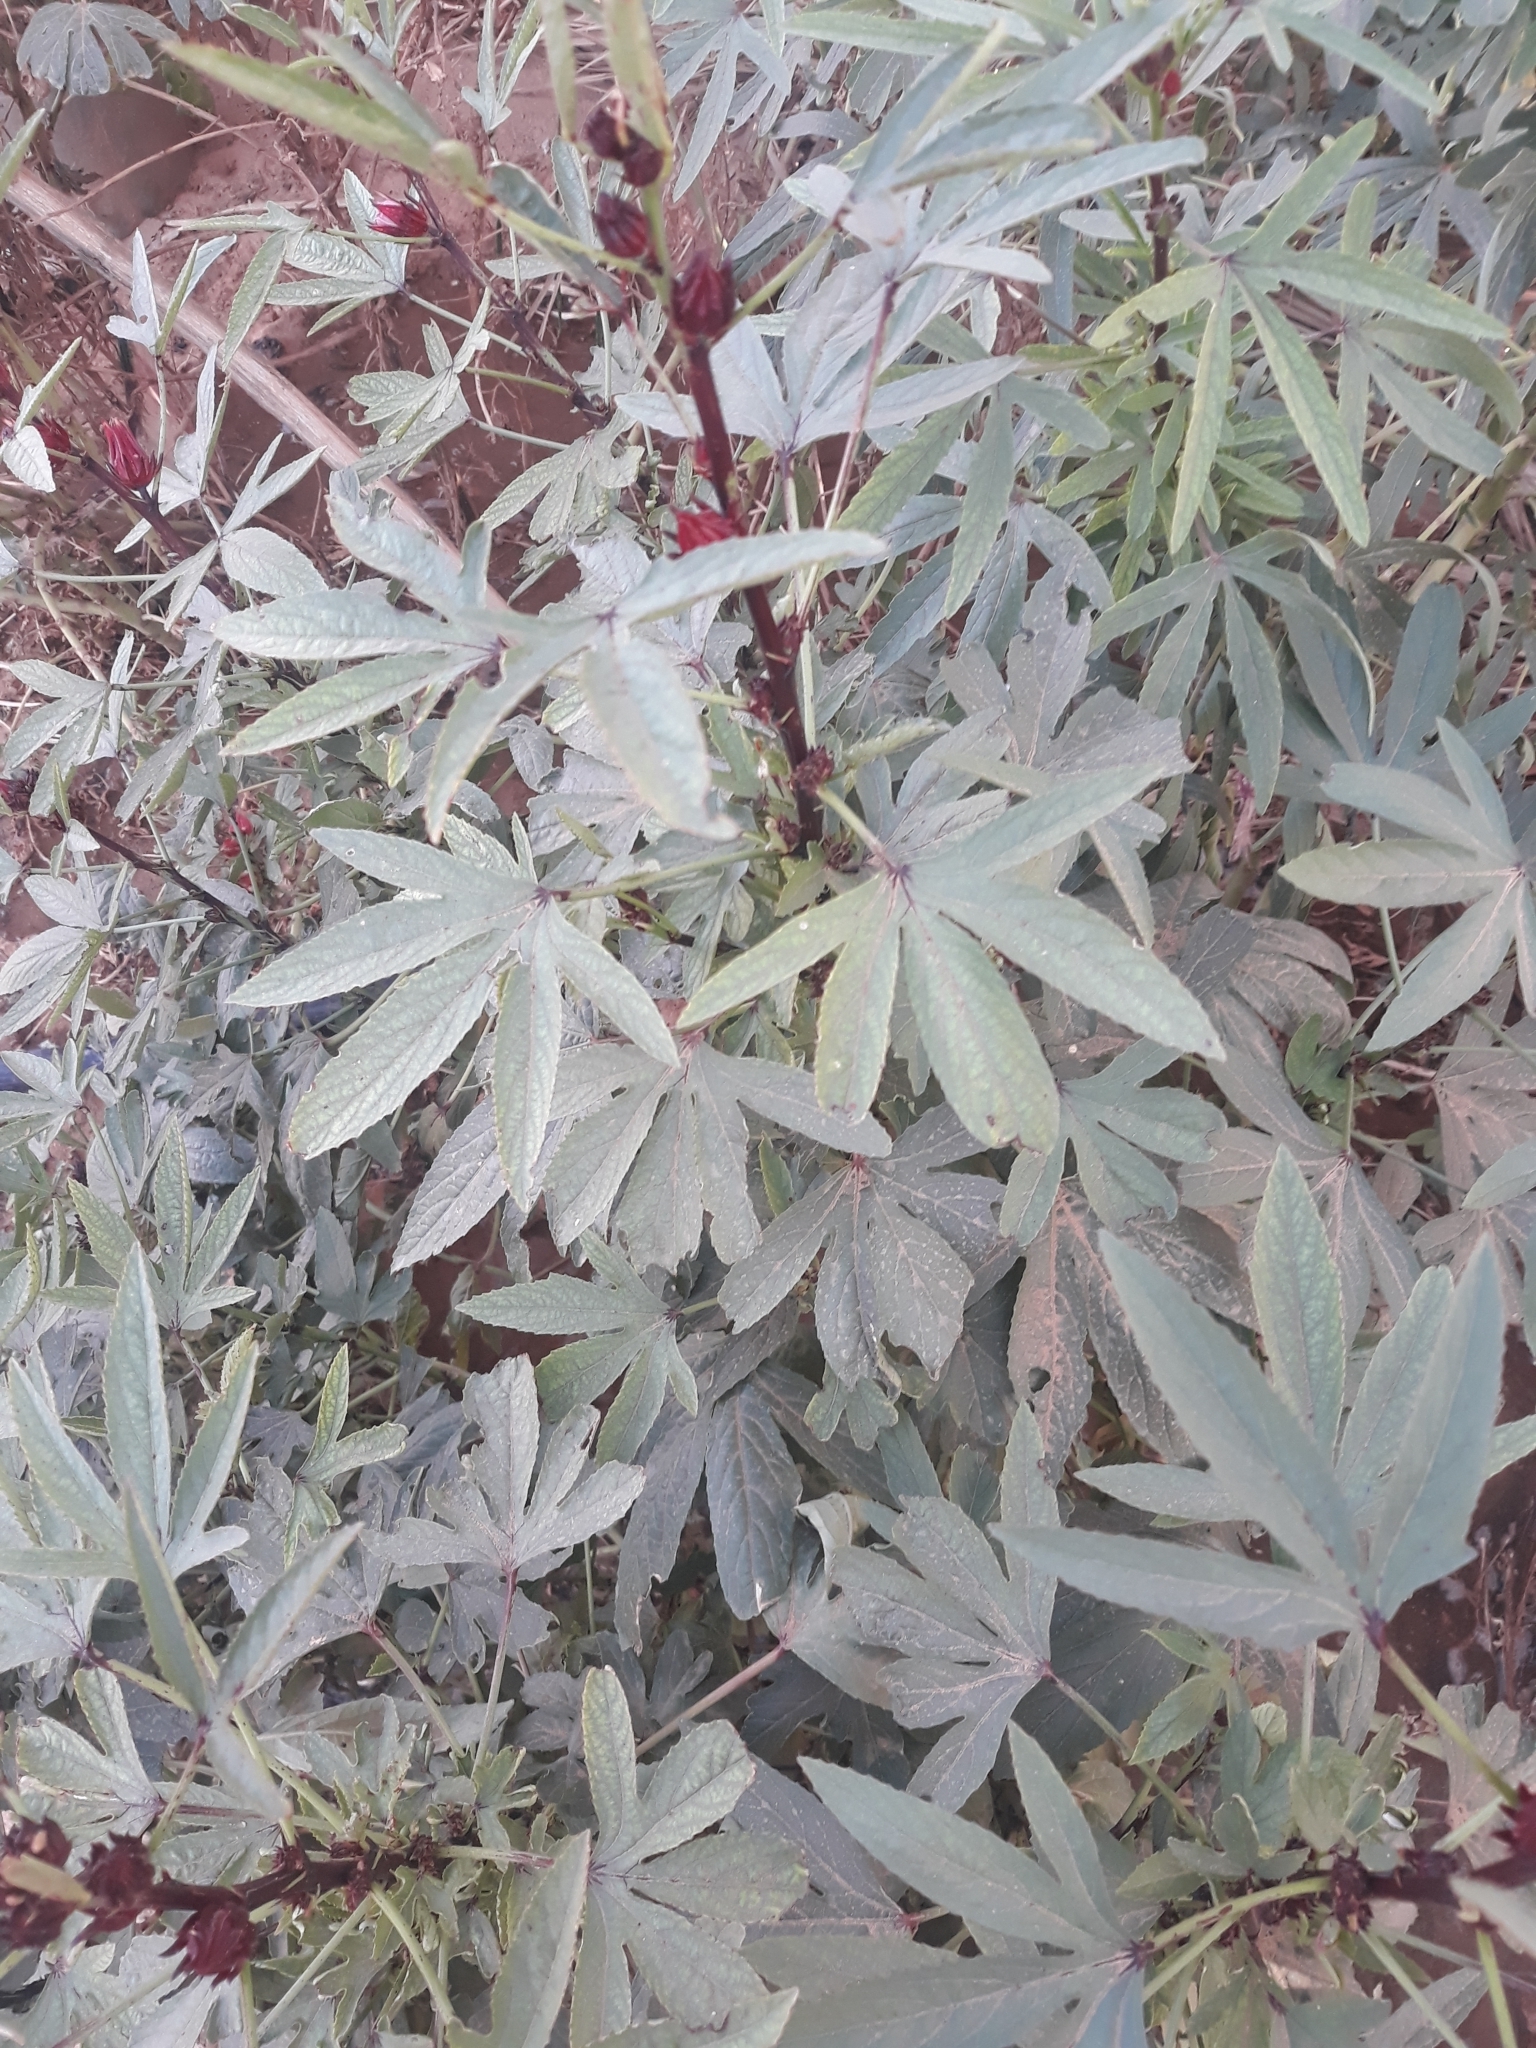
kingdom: Plantae
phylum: Tracheophyta
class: Magnoliopsida
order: Malvales
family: Malvaceae
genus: Hibiscus
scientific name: Hibiscus sabdariffa
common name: Roselle
